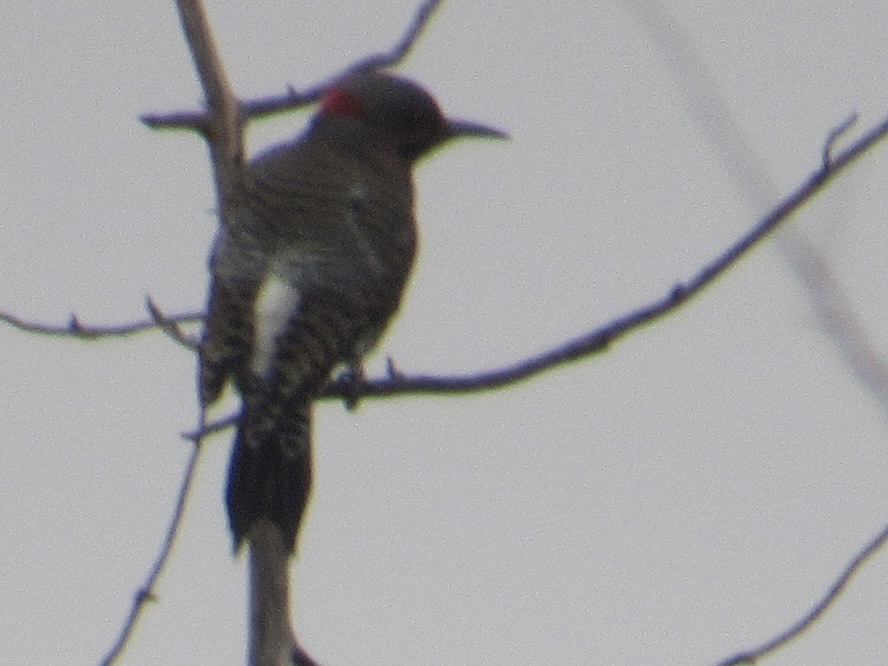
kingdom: Animalia
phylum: Chordata
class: Aves
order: Piciformes
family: Picidae
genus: Colaptes
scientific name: Colaptes auratus
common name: Northern flicker
